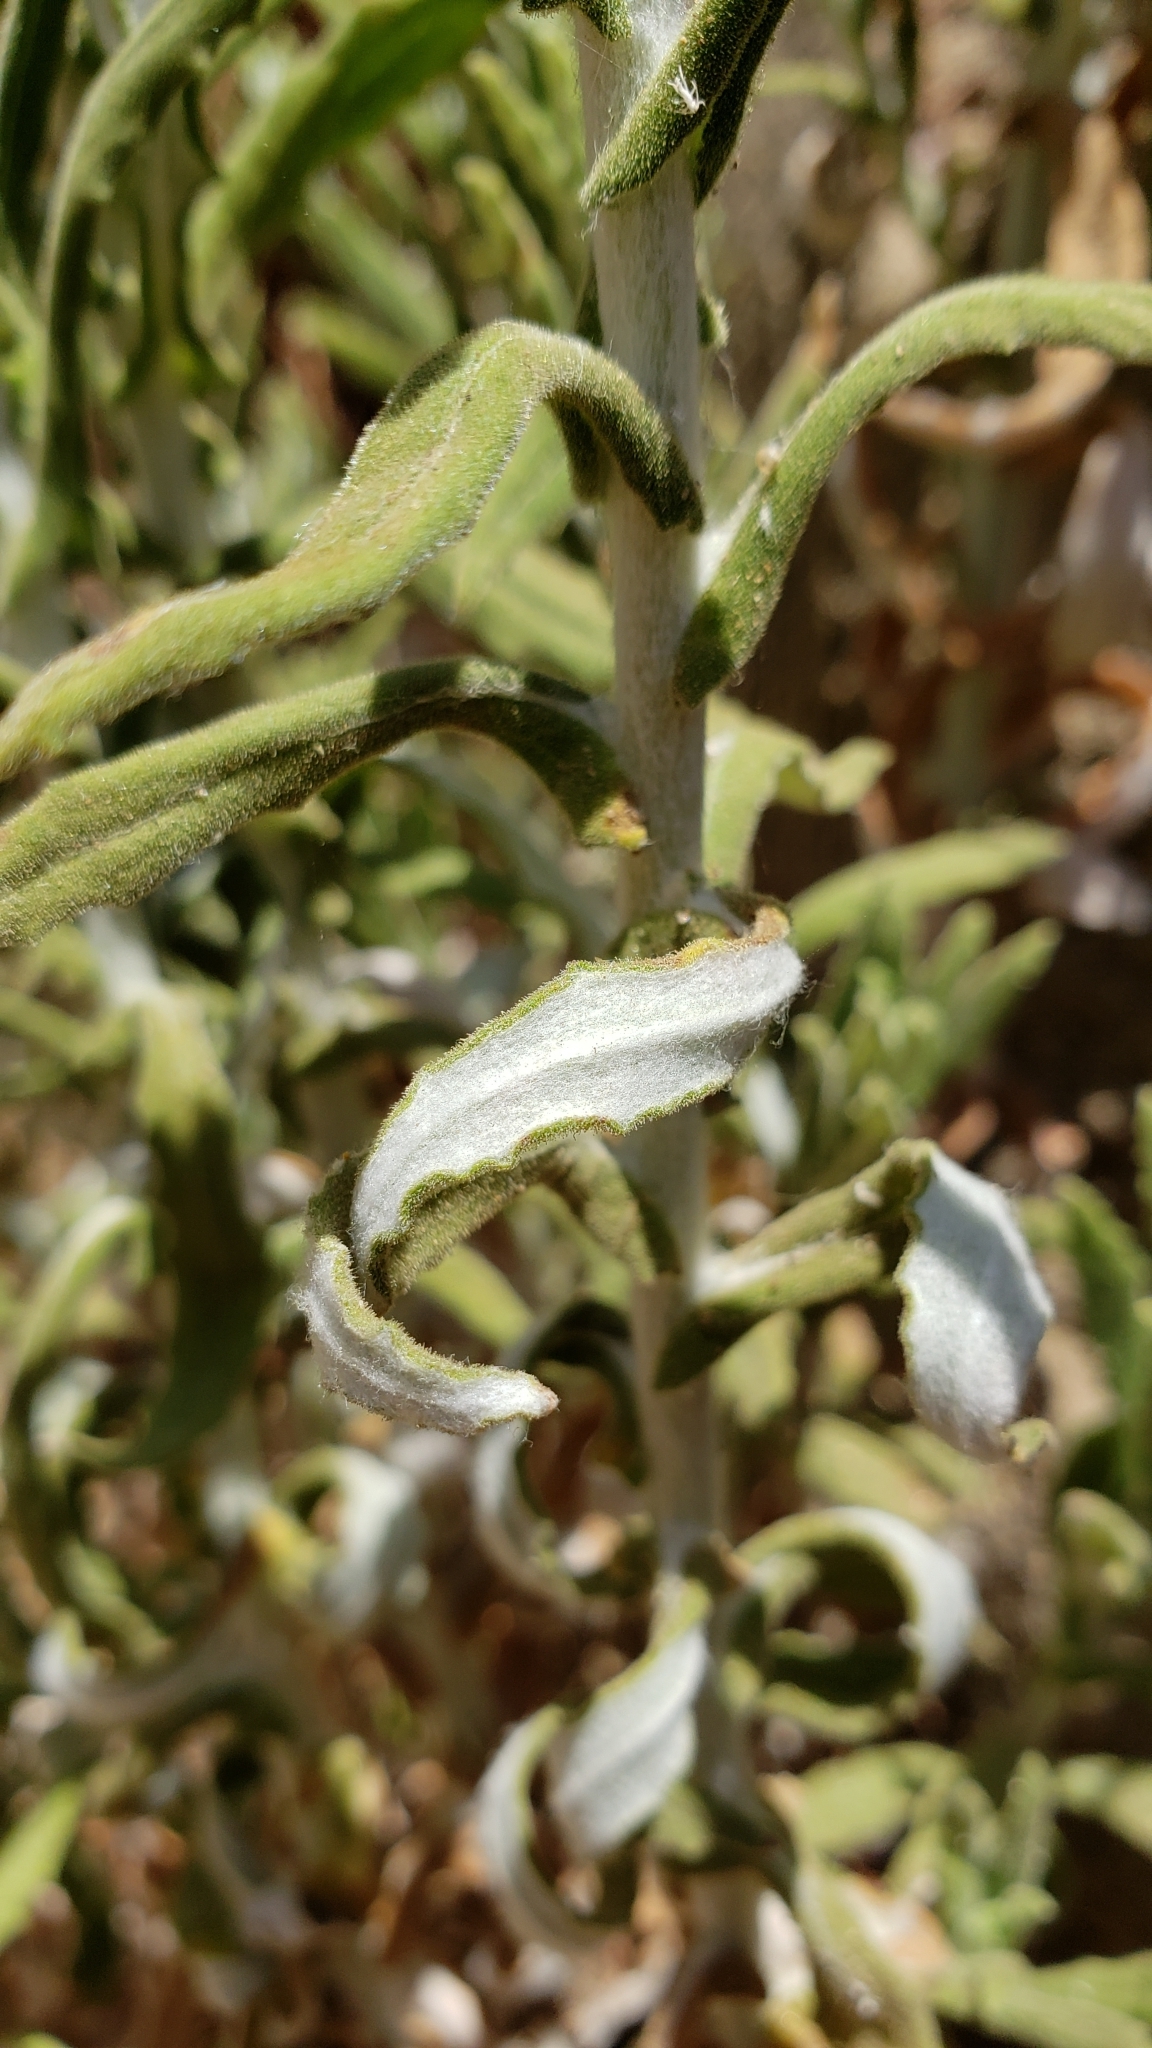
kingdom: Plantae
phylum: Tracheophyta
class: Magnoliopsida
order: Asterales
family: Asteraceae
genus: Pseudognaphalium
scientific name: Pseudognaphalium biolettii
